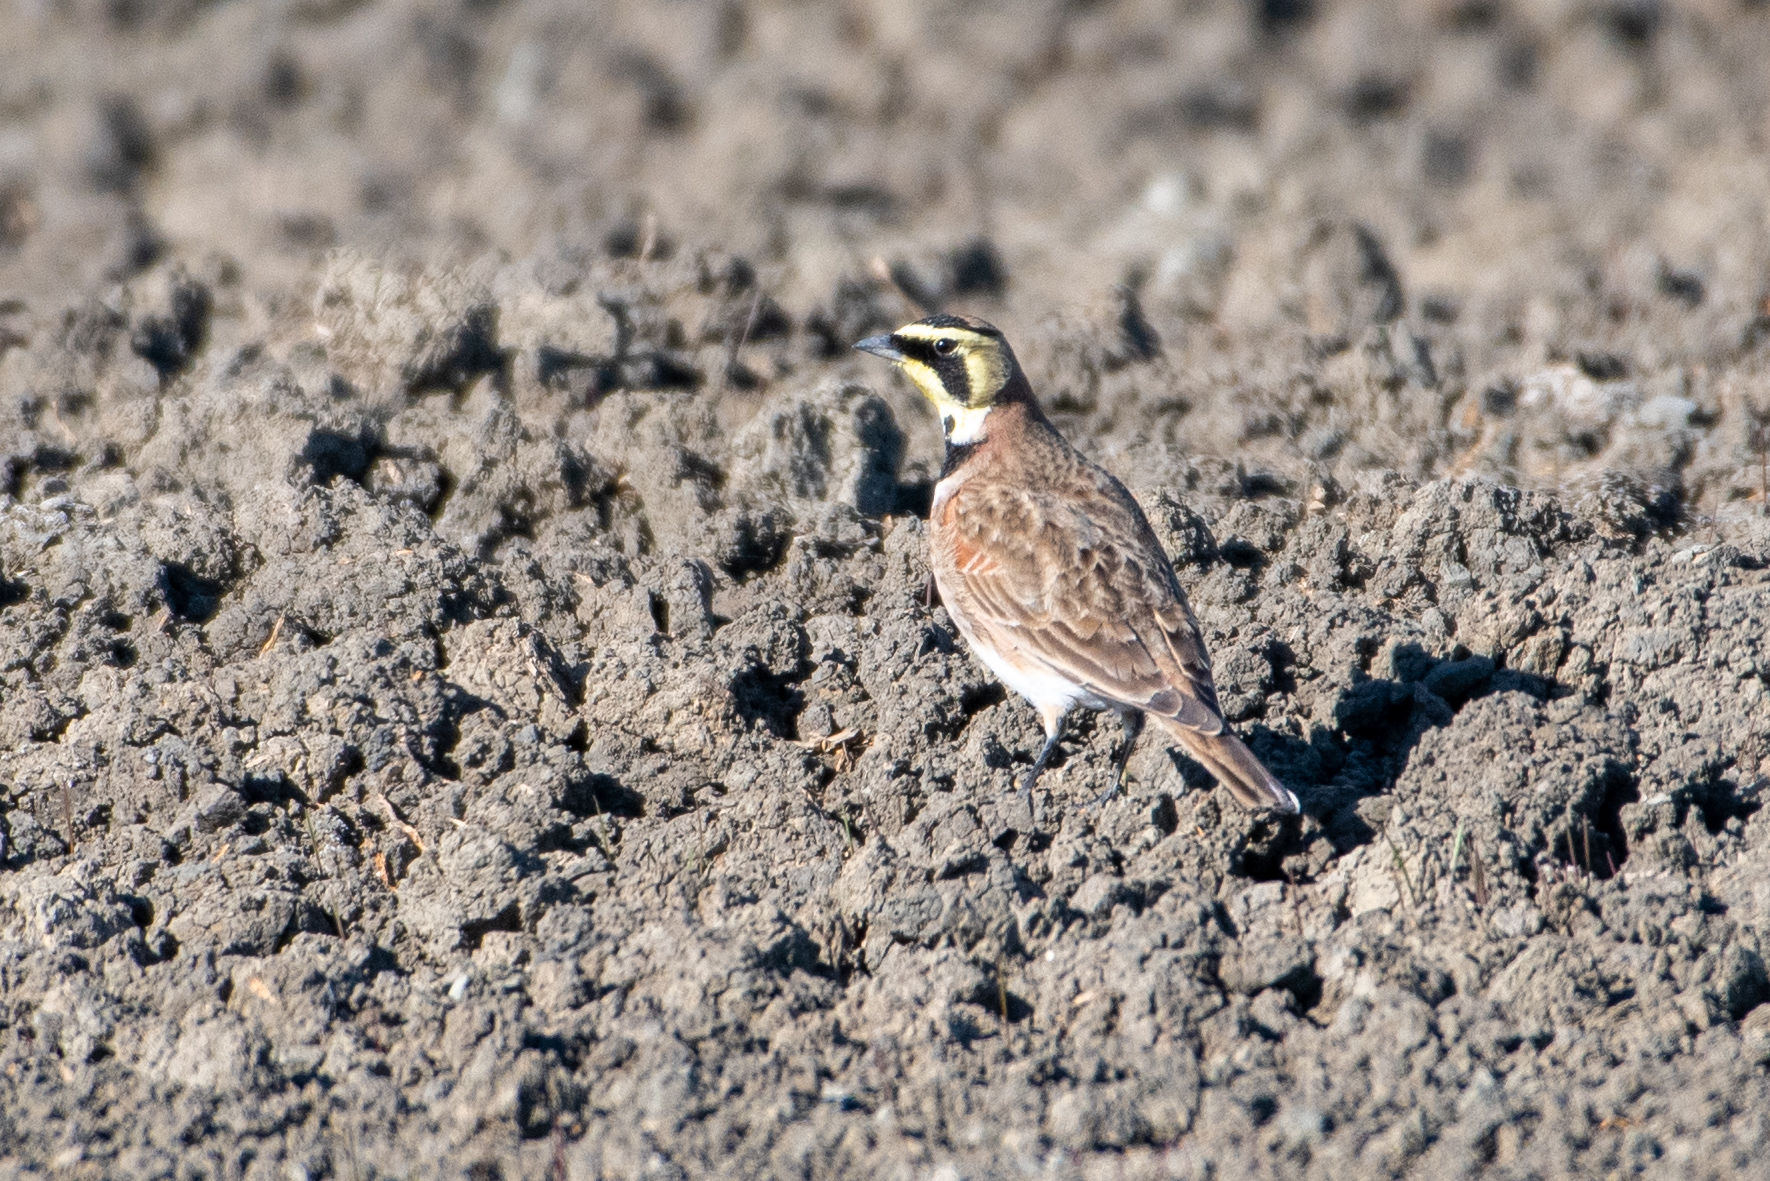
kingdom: Animalia
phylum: Chordata
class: Aves
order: Passeriformes
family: Alaudidae
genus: Eremophila
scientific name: Eremophila alpestris
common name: Horned lark
